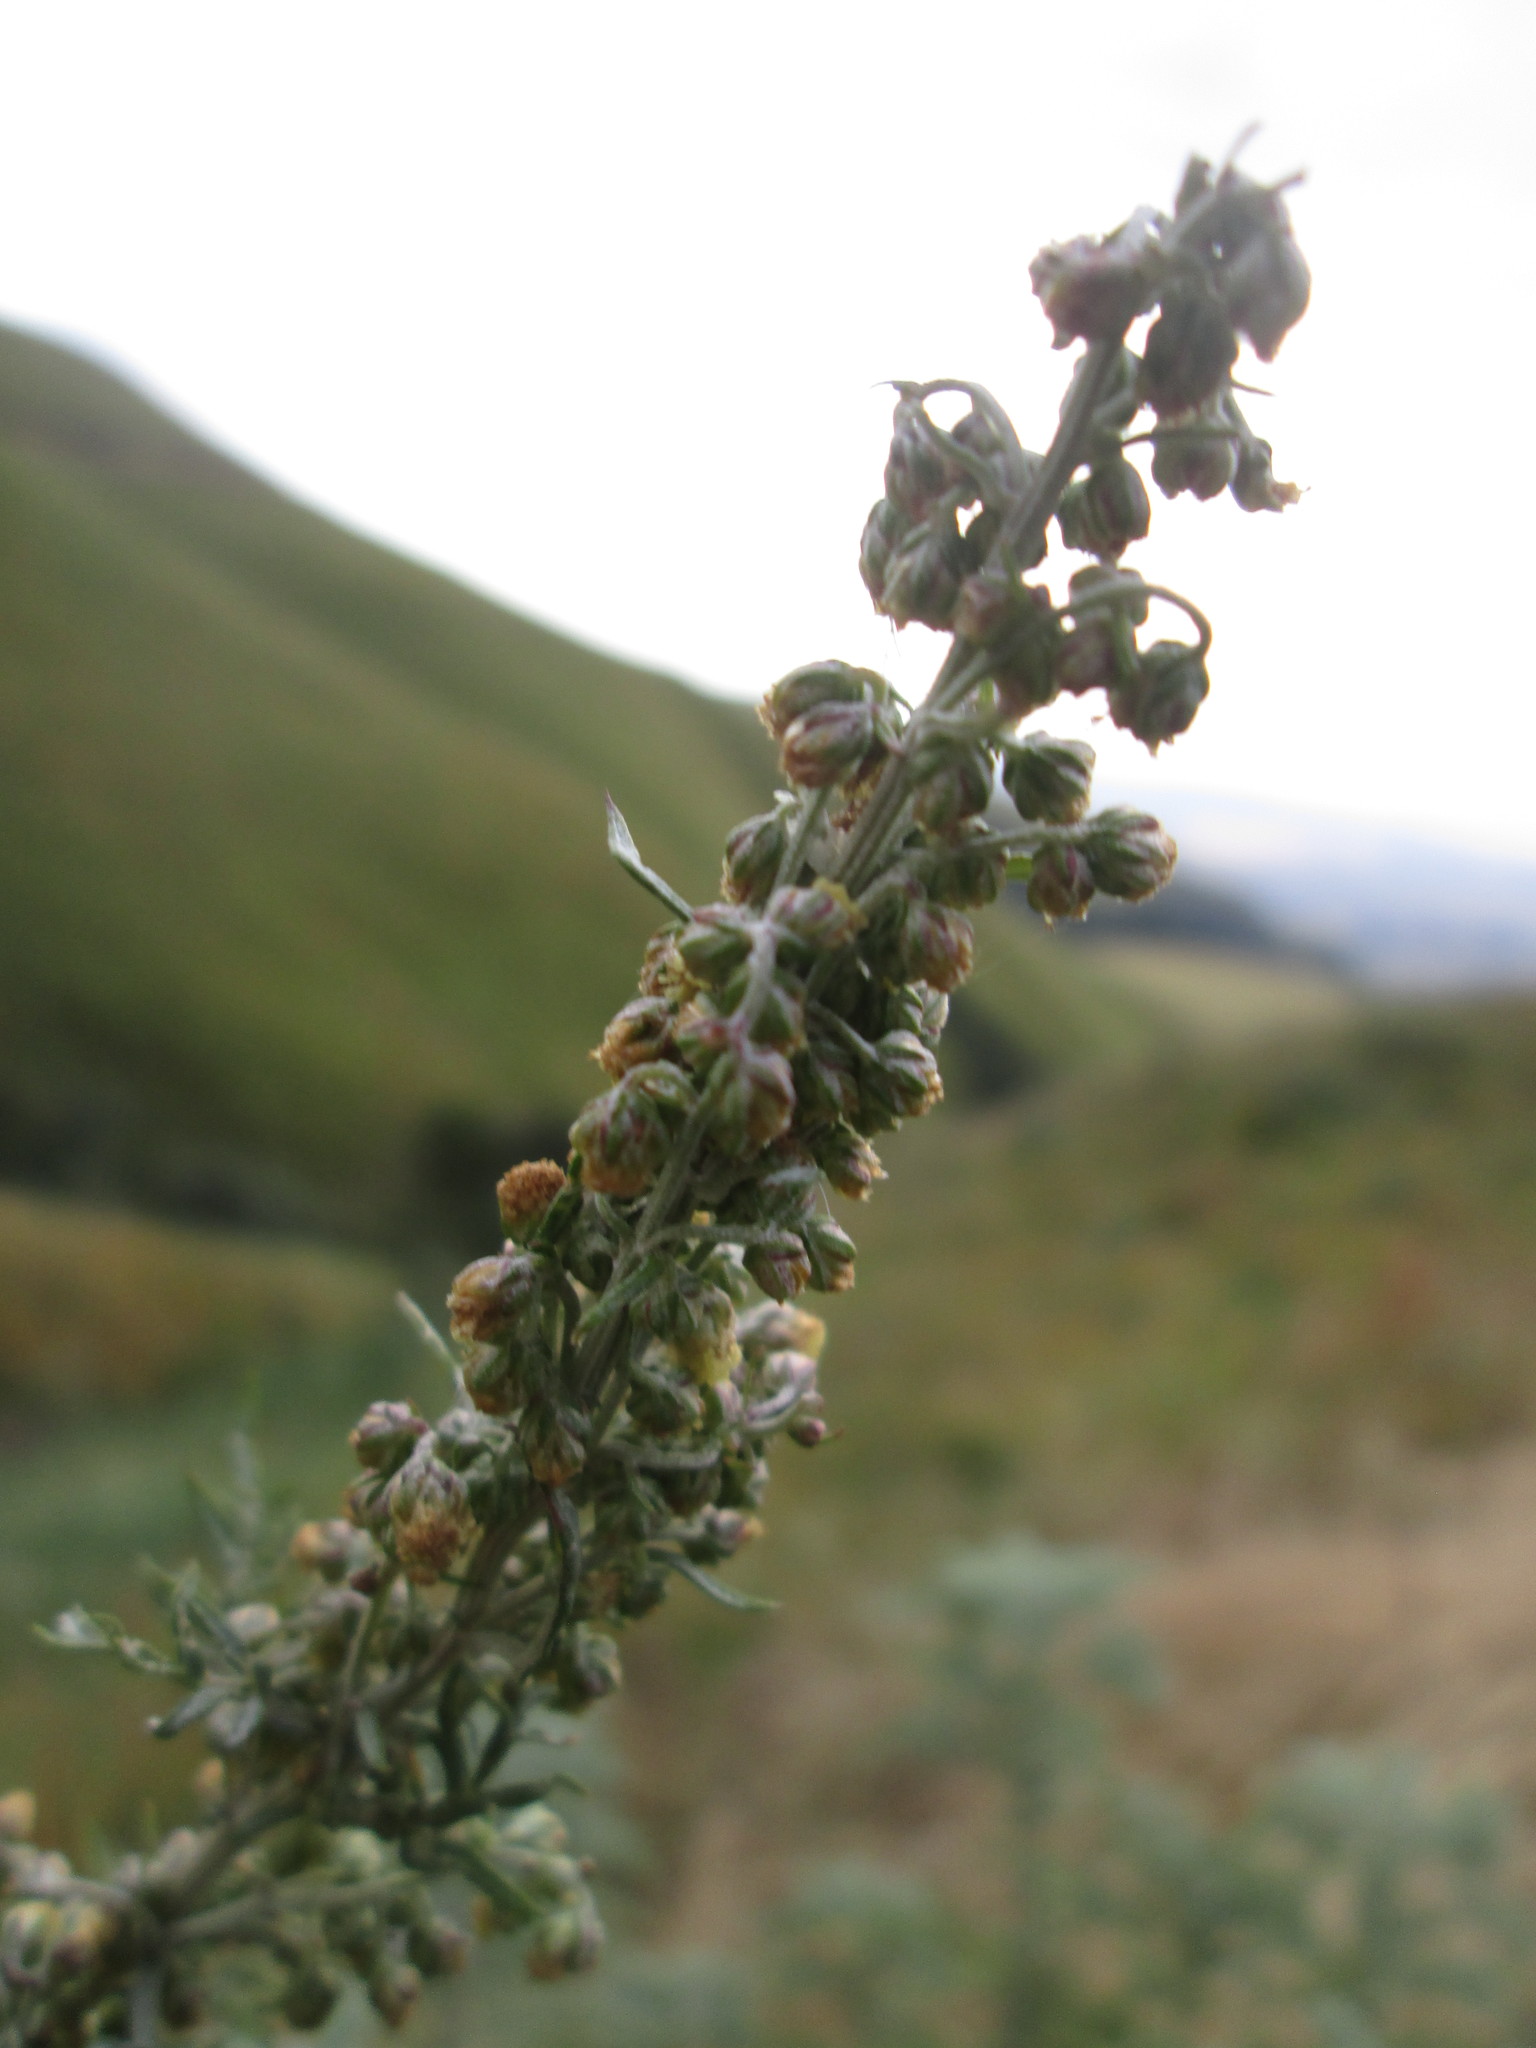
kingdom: Plantae
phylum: Tracheophyta
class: Magnoliopsida
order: Asterales
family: Asteraceae
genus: Artemisia
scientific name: Artemisia afra
